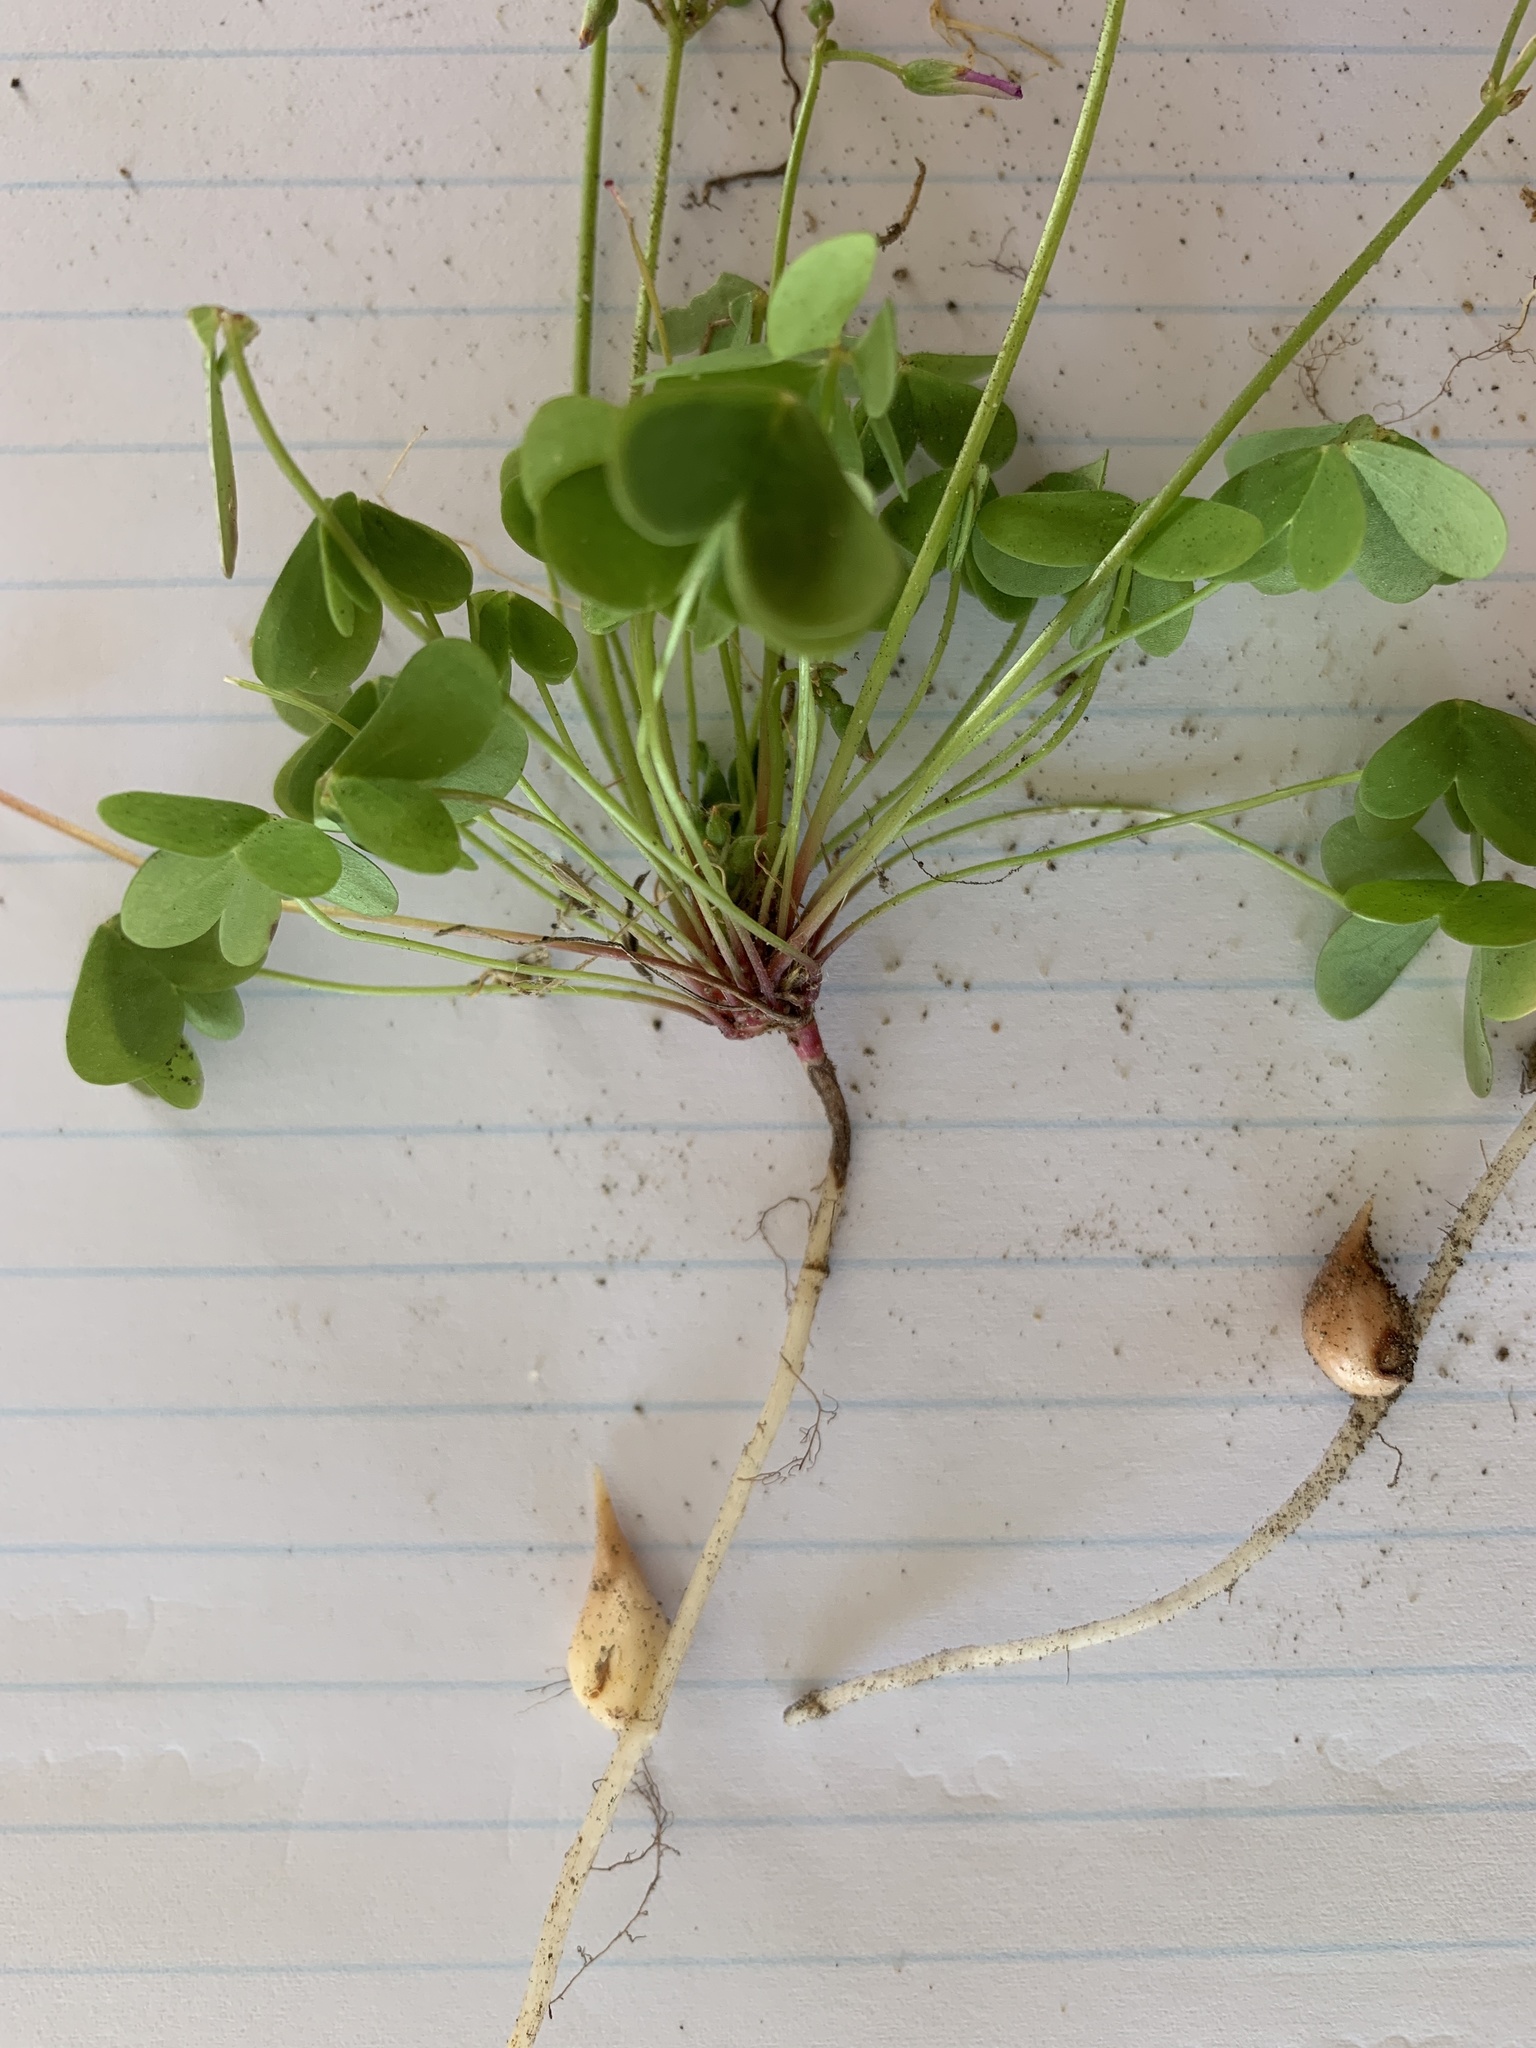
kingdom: Plantae
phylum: Tracheophyta
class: Magnoliopsida
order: Oxalidales
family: Oxalidaceae
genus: Oxalis
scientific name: Oxalis caprina
